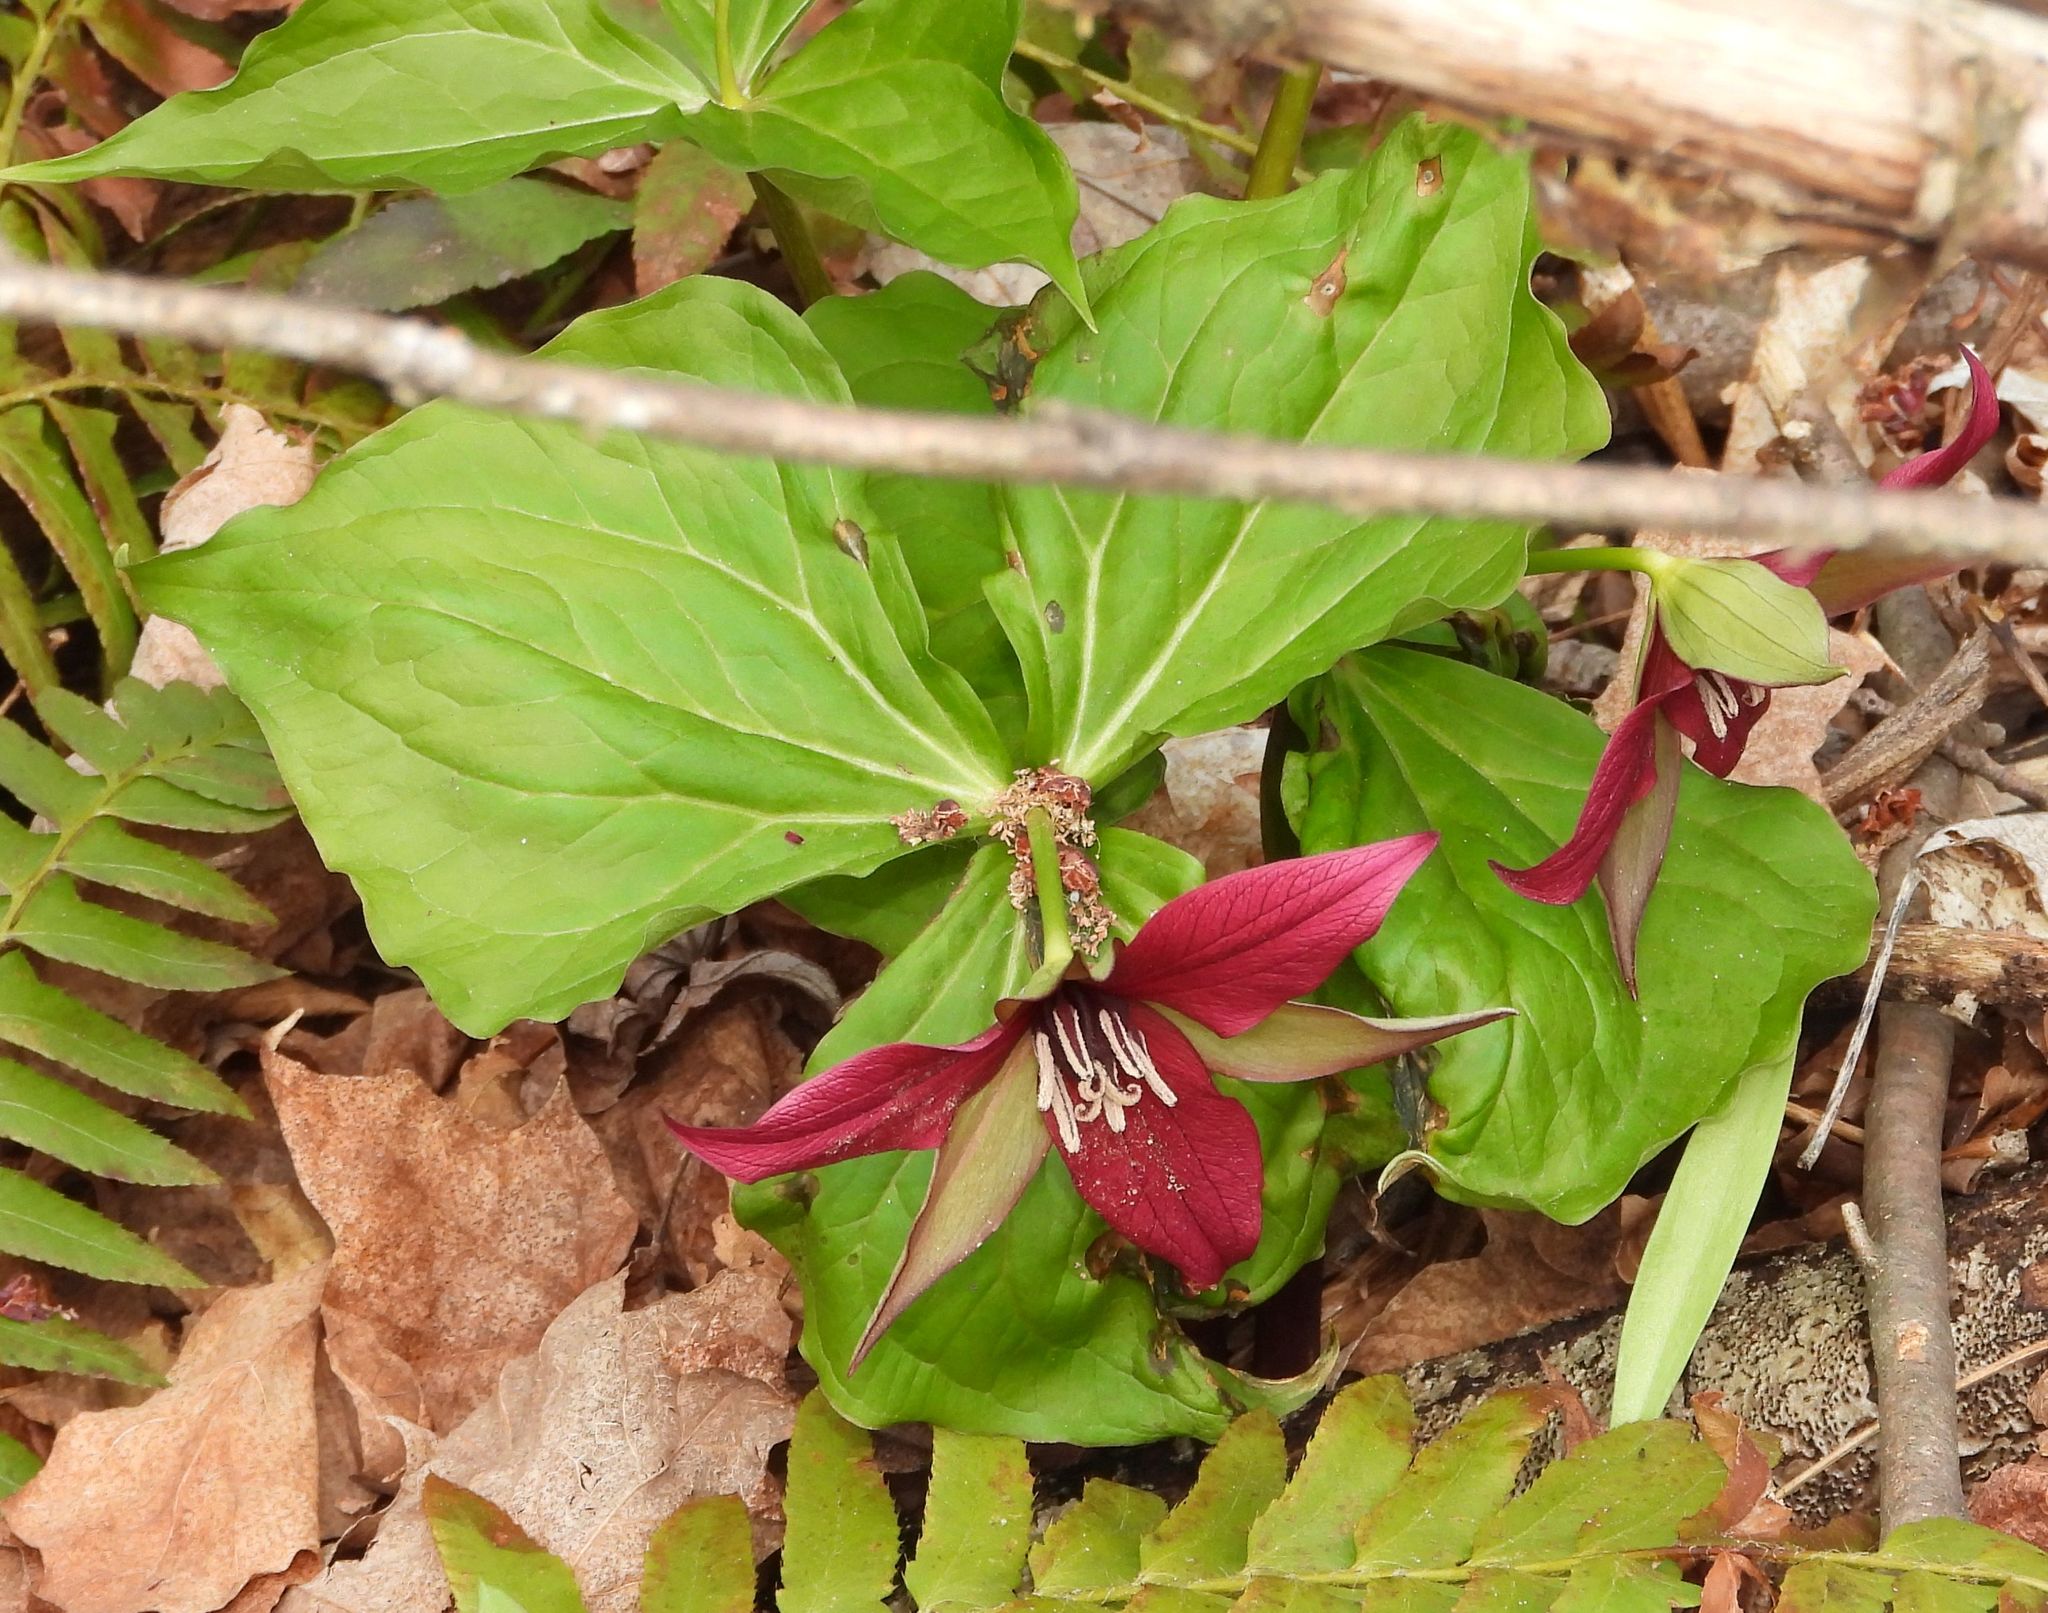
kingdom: Plantae
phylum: Tracheophyta
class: Liliopsida
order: Liliales
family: Melanthiaceae
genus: Trillium
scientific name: Trillium erectum
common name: Purple trillium
